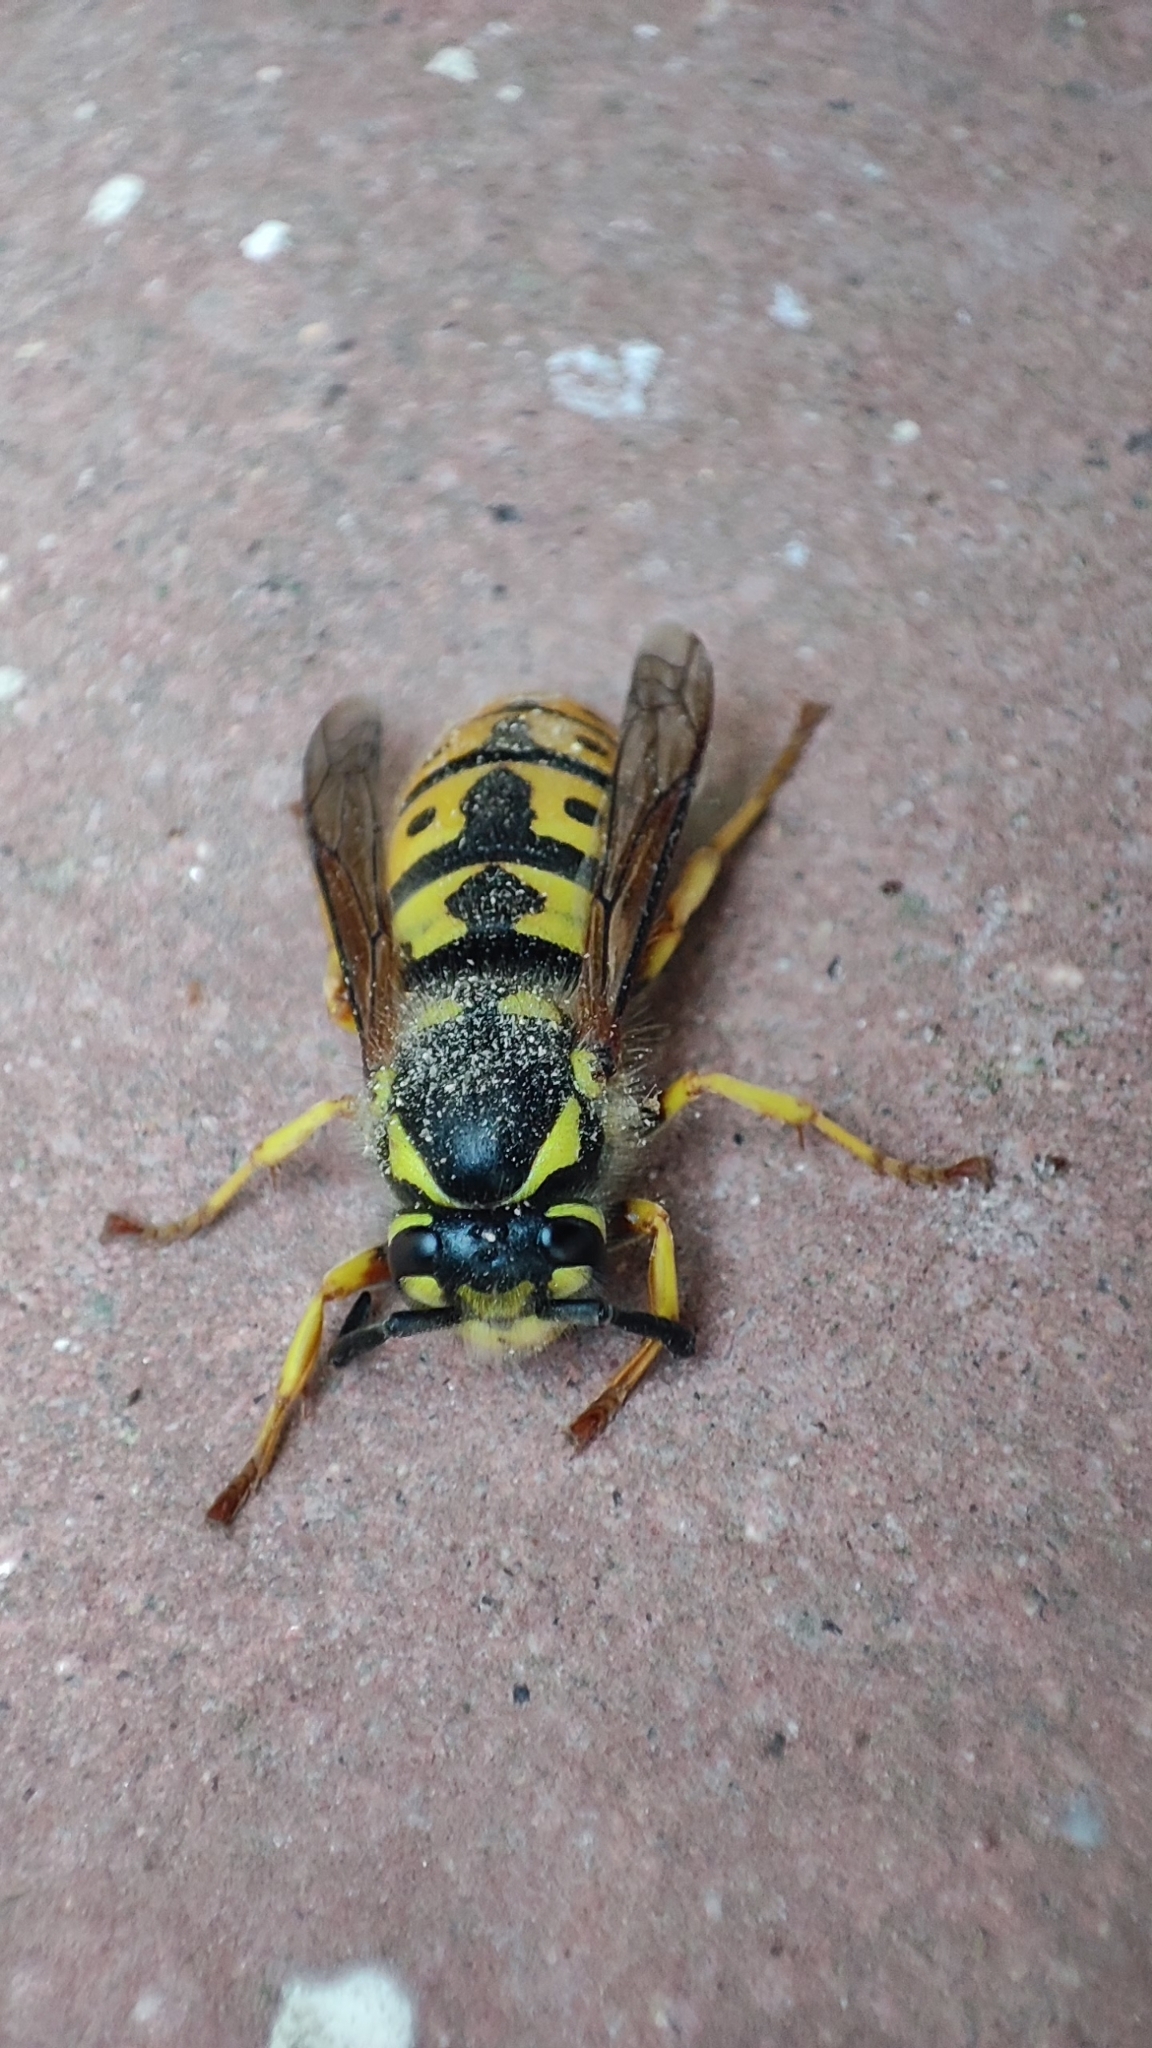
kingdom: Animalia
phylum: Arthropoda
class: Insecta
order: Hymenoptera
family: Vespidae
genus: Vespula
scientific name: Vespula germanica
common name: German wasp
